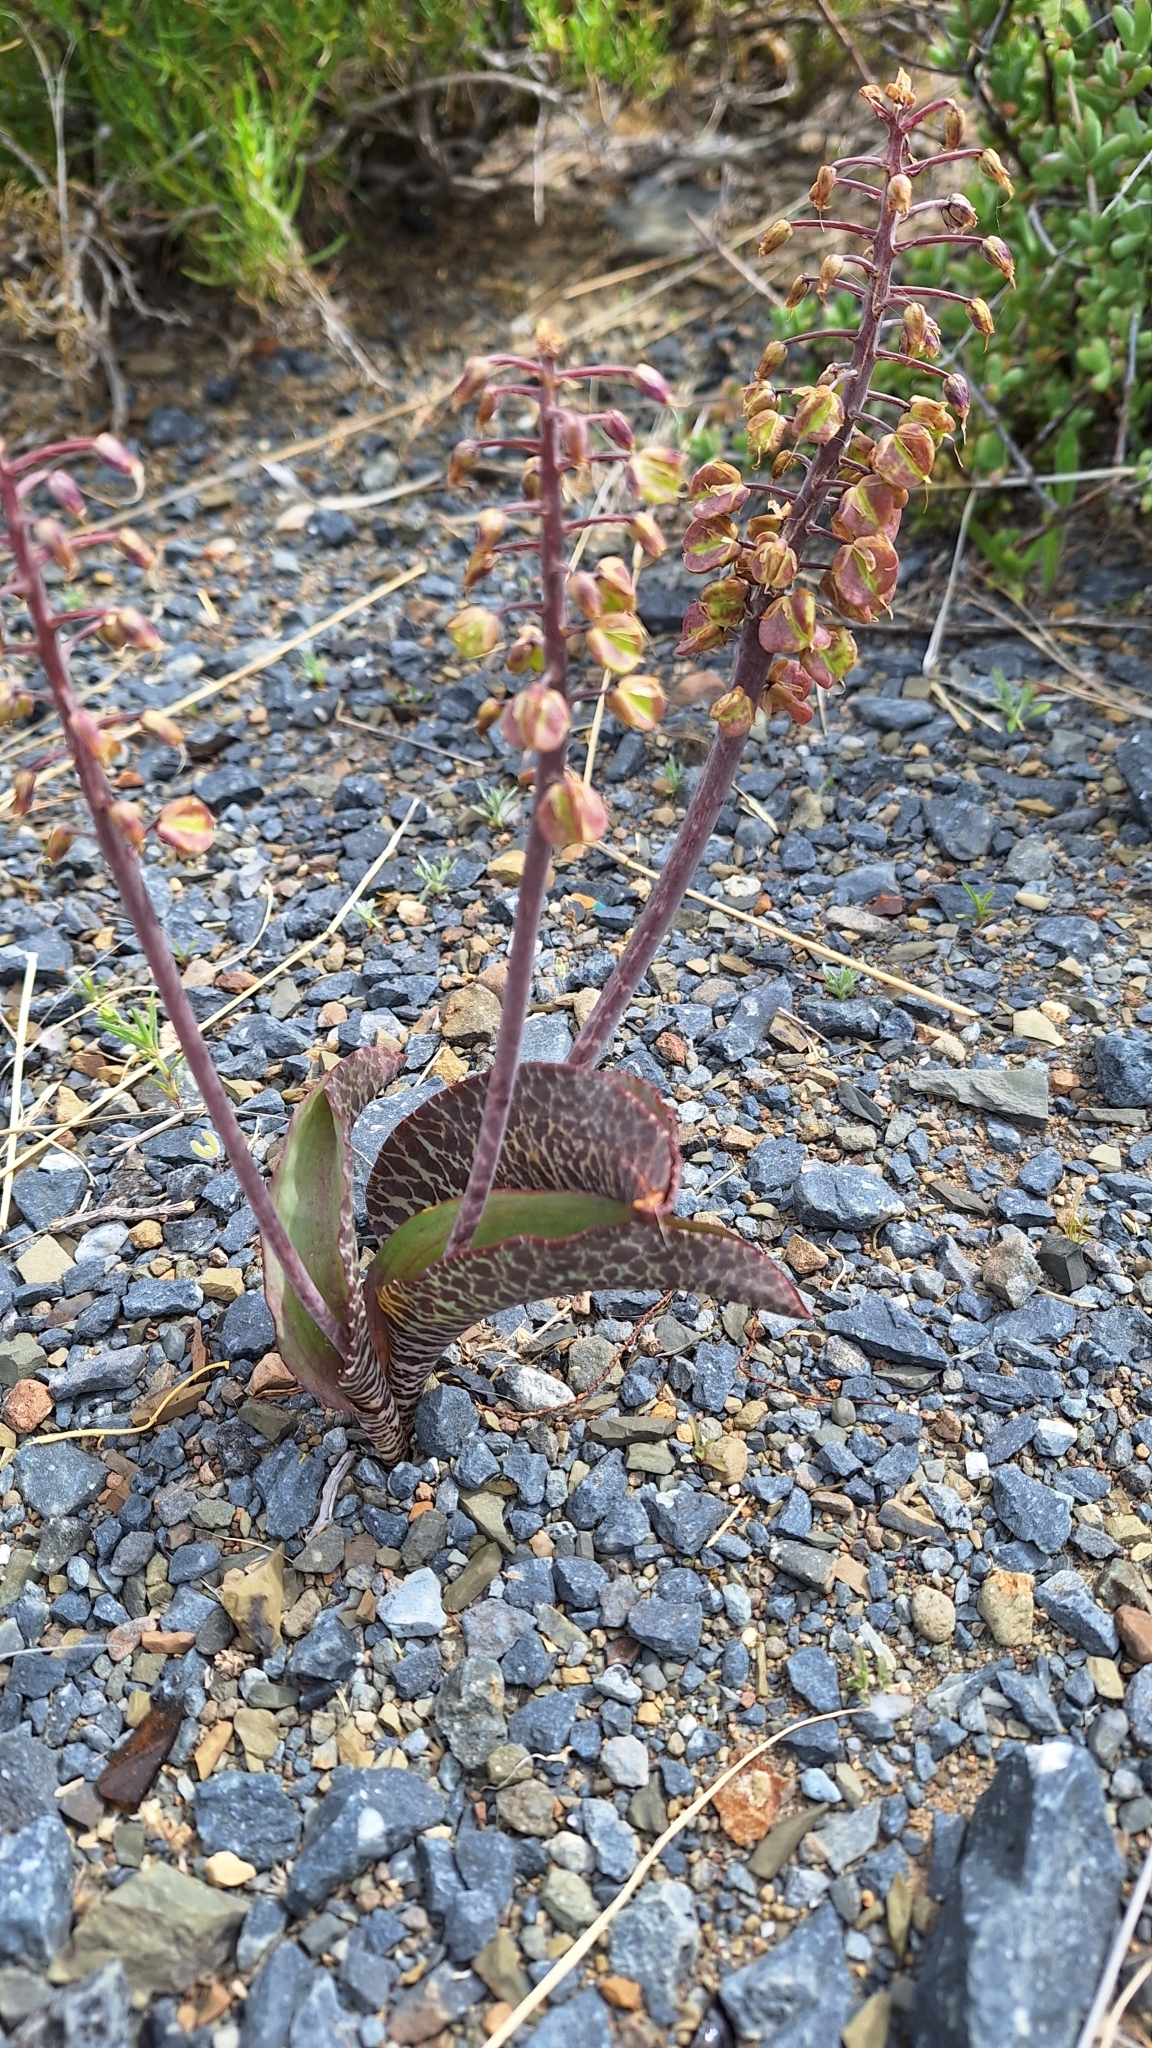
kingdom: Plantae
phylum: Tracheophyta
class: Liliopsida
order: Asparagales
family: Asparagaceae
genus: Lachenalia
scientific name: Lachenalia zebrina
